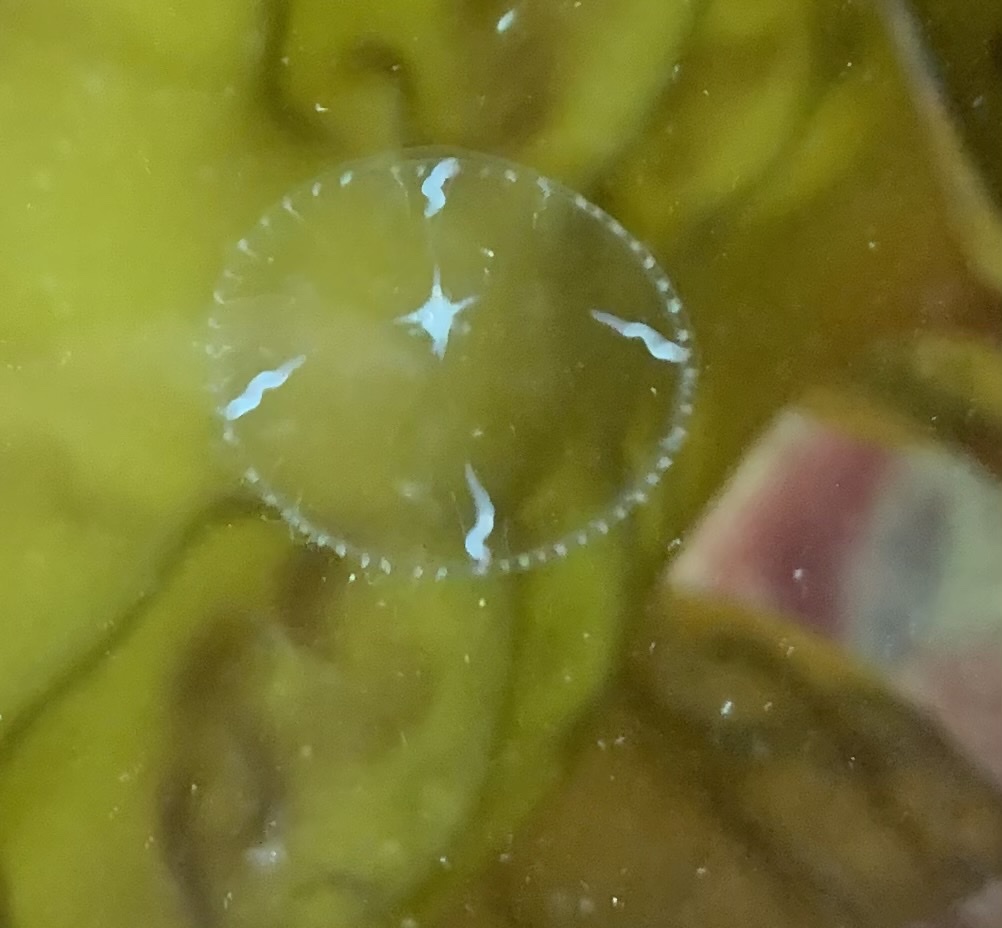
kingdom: Animalia
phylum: Cnidaria
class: Hydrozoa
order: Leptothecata
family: Campanulariidae
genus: Clytia
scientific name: Clytia gregaria
